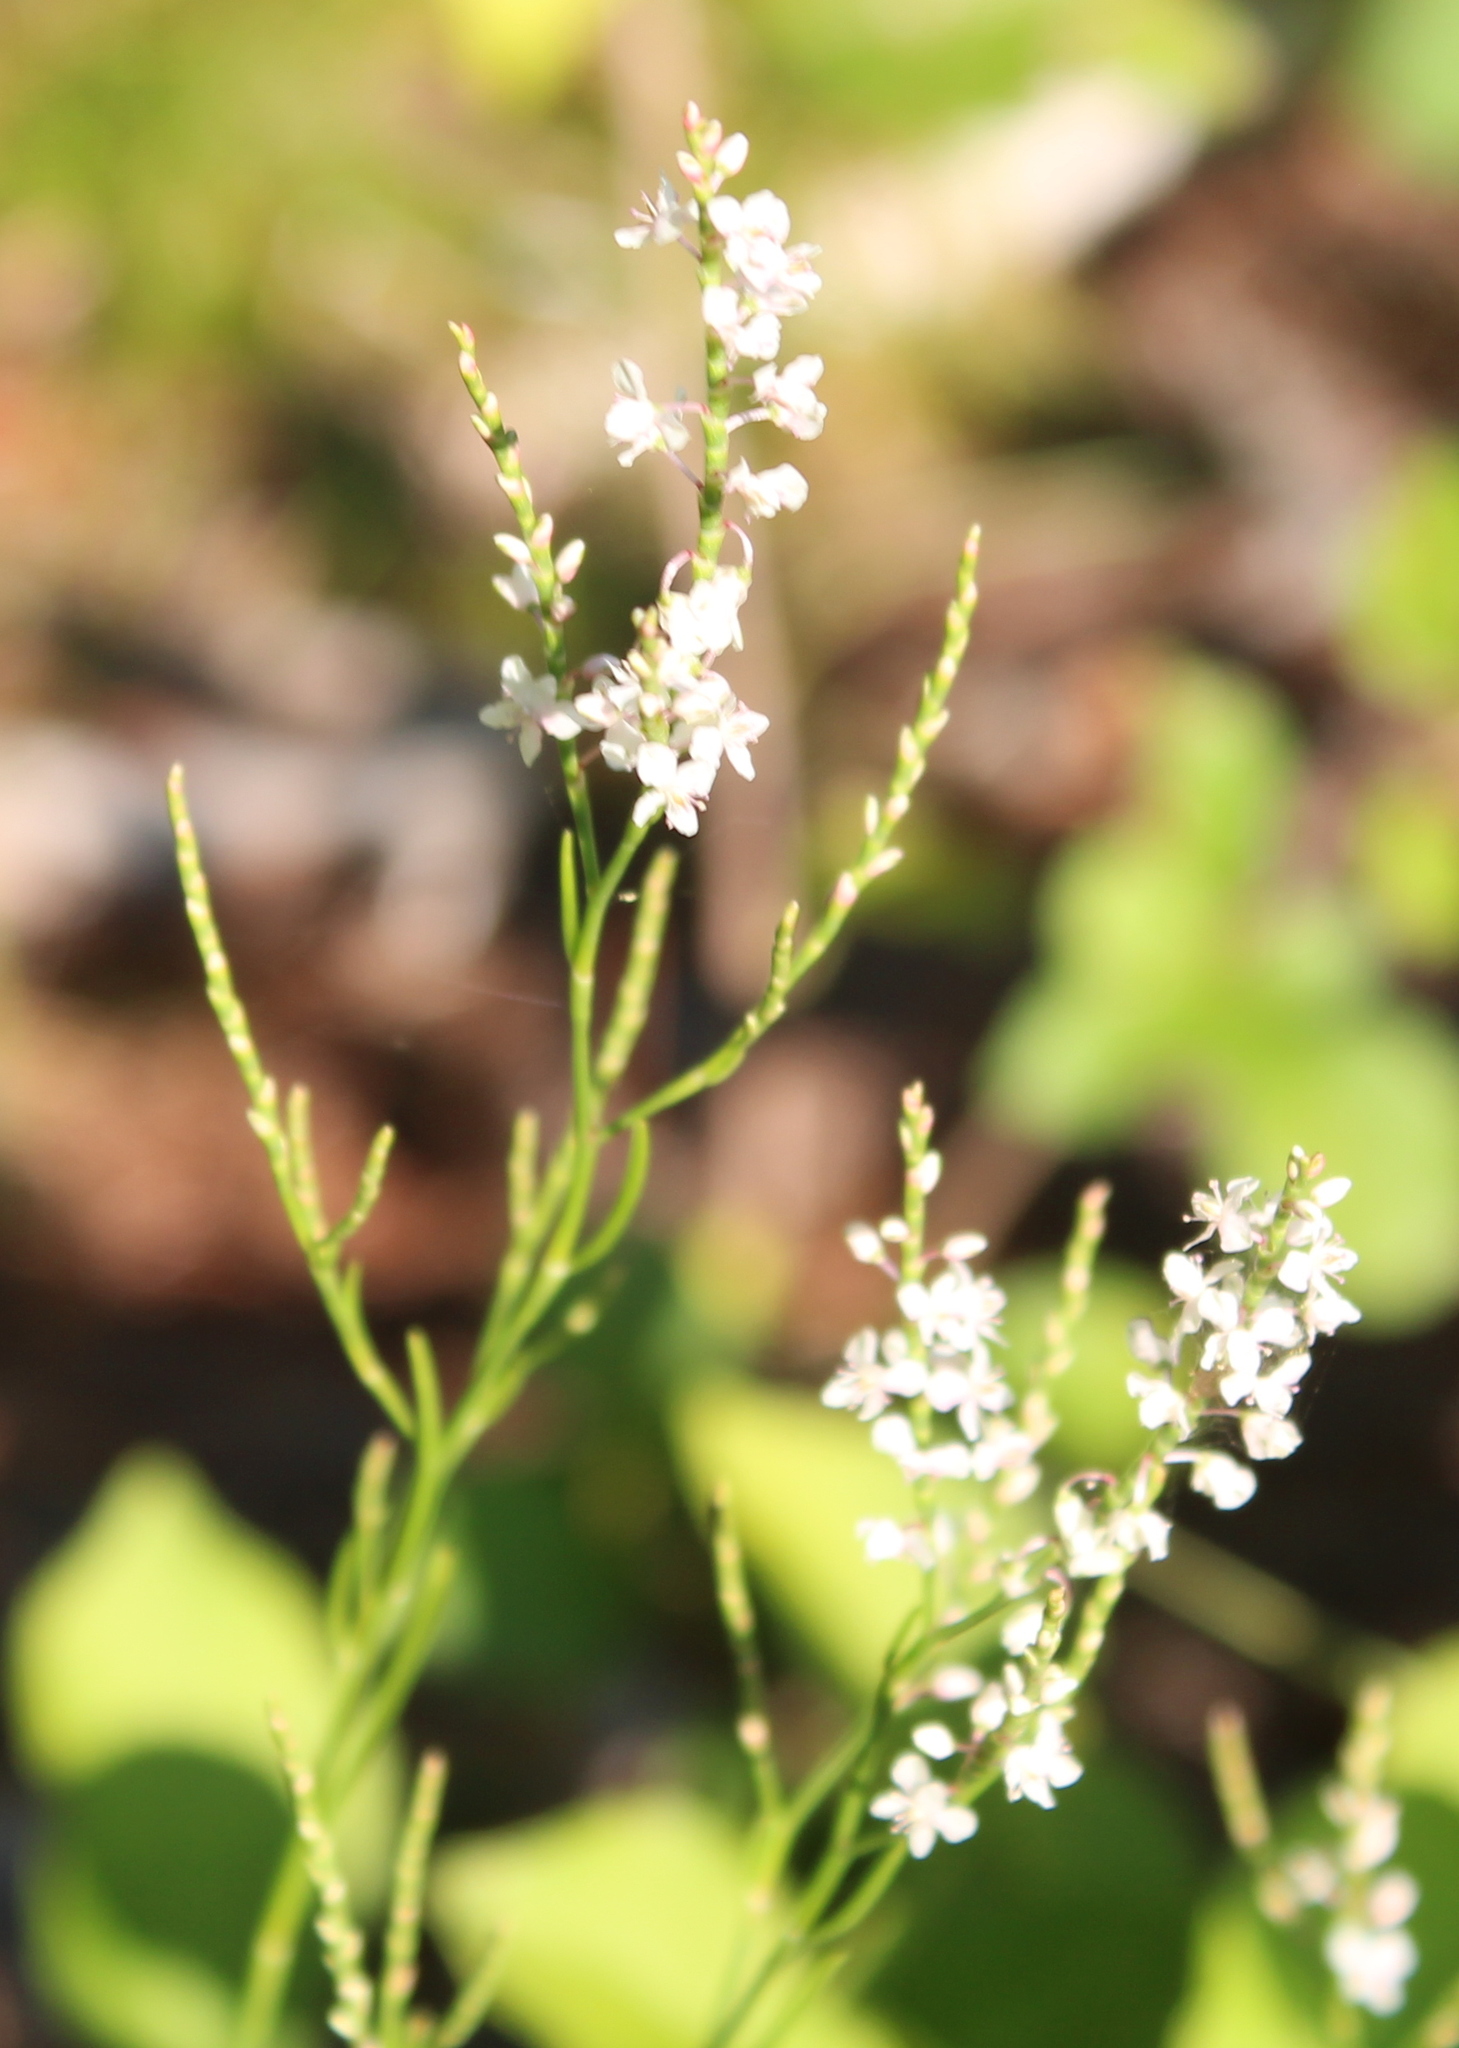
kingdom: Plantae
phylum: Tracheophyta
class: Magnoliopsida
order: Caryophyllales
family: Polygonaceae
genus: Polygonella
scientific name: Polygonella articulata
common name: Coastal jointweed
